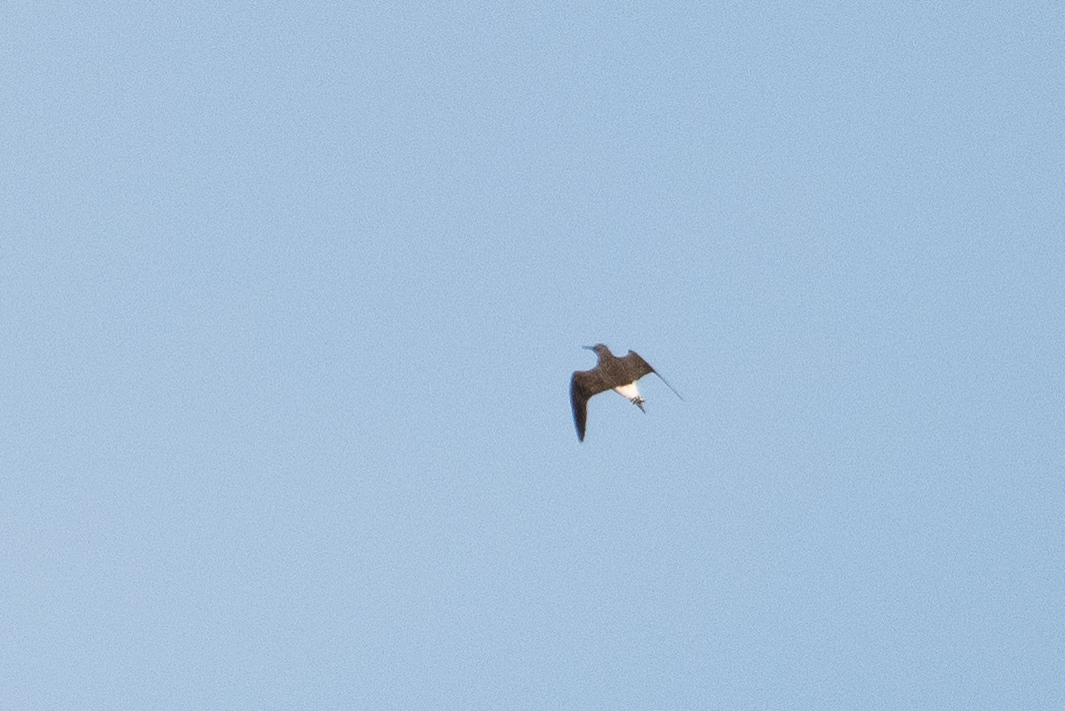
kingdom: Animalia
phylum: Chordata
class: Aves
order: Charadriiformes
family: Scolopacidae
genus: Tringa
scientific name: Tringa ochropus
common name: Green sandpiper
